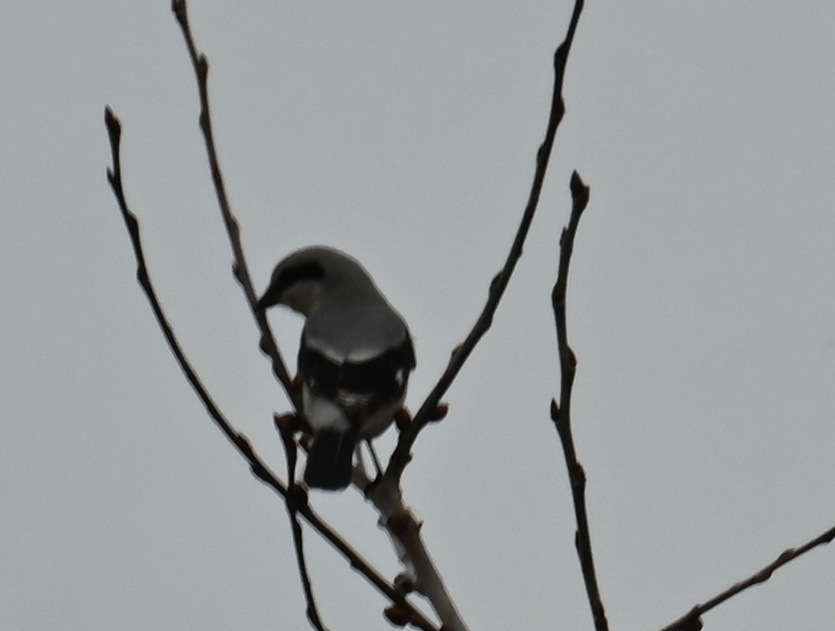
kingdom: Animalia
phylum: Chordata
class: Aves
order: Passeriformes
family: Laniidae
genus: Lanius
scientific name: Lanius excubitor
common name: Great grey shrike
